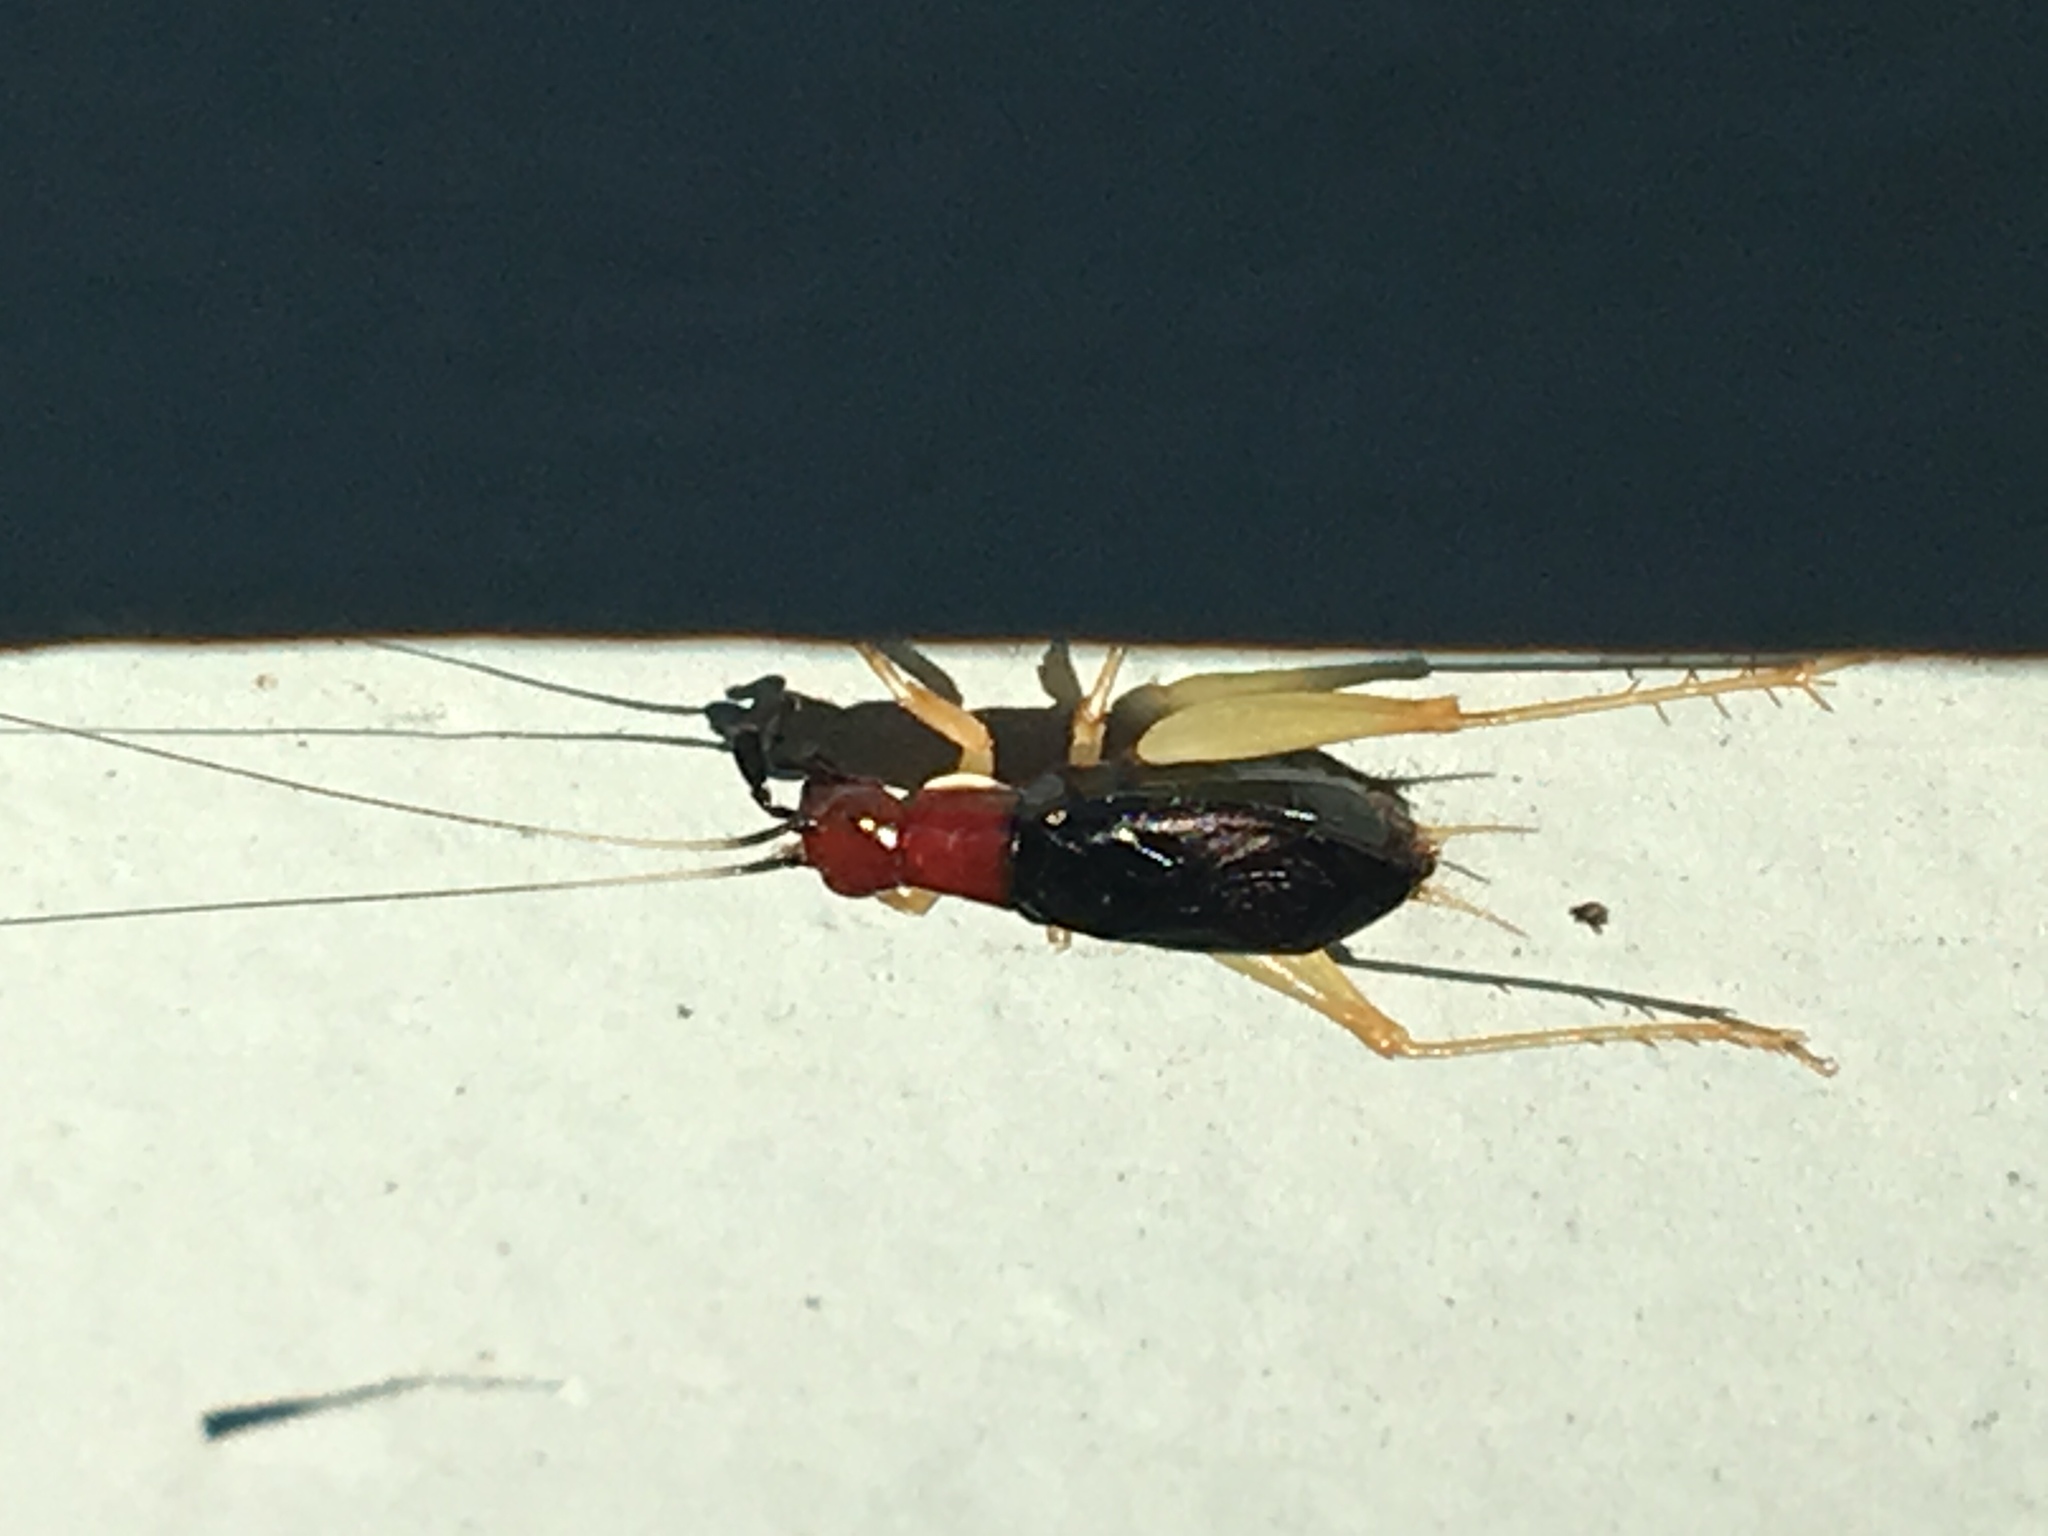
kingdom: Animalia
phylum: Arthropoda
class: Insecta
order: Orthoptera
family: Trigonidiidae
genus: Phyllopalpus
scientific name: Phyllopalpus pulchellus
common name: Handsome trig
